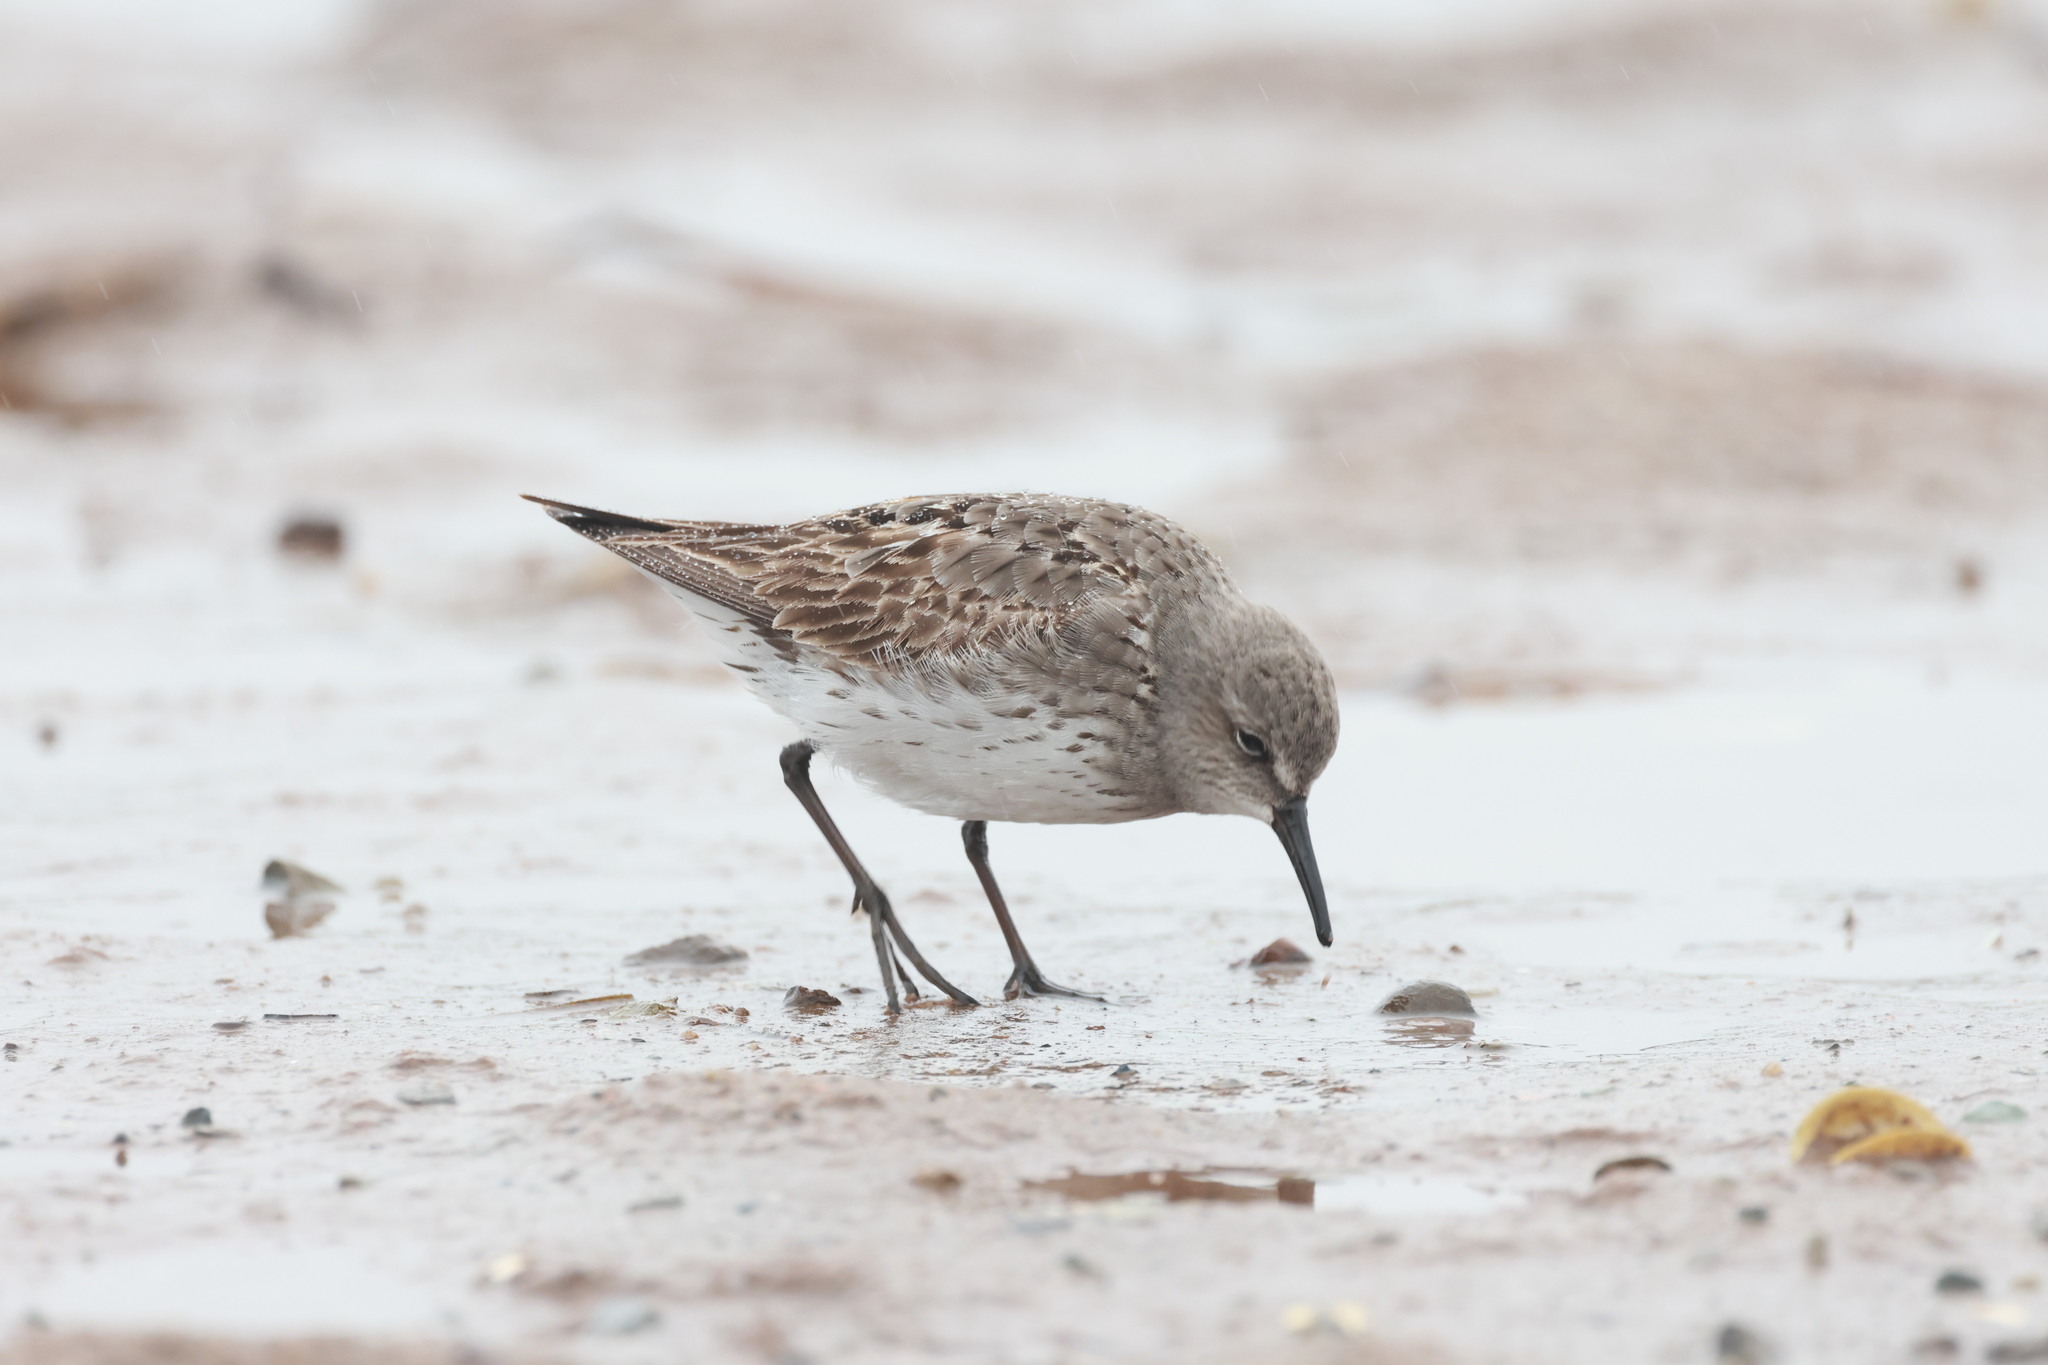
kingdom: Animalia
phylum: Chordata
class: Aves
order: Charadriiformes
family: Scolopacidae
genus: Calidris
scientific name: Calidris fuscicollis
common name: White-rumped sandpiper
